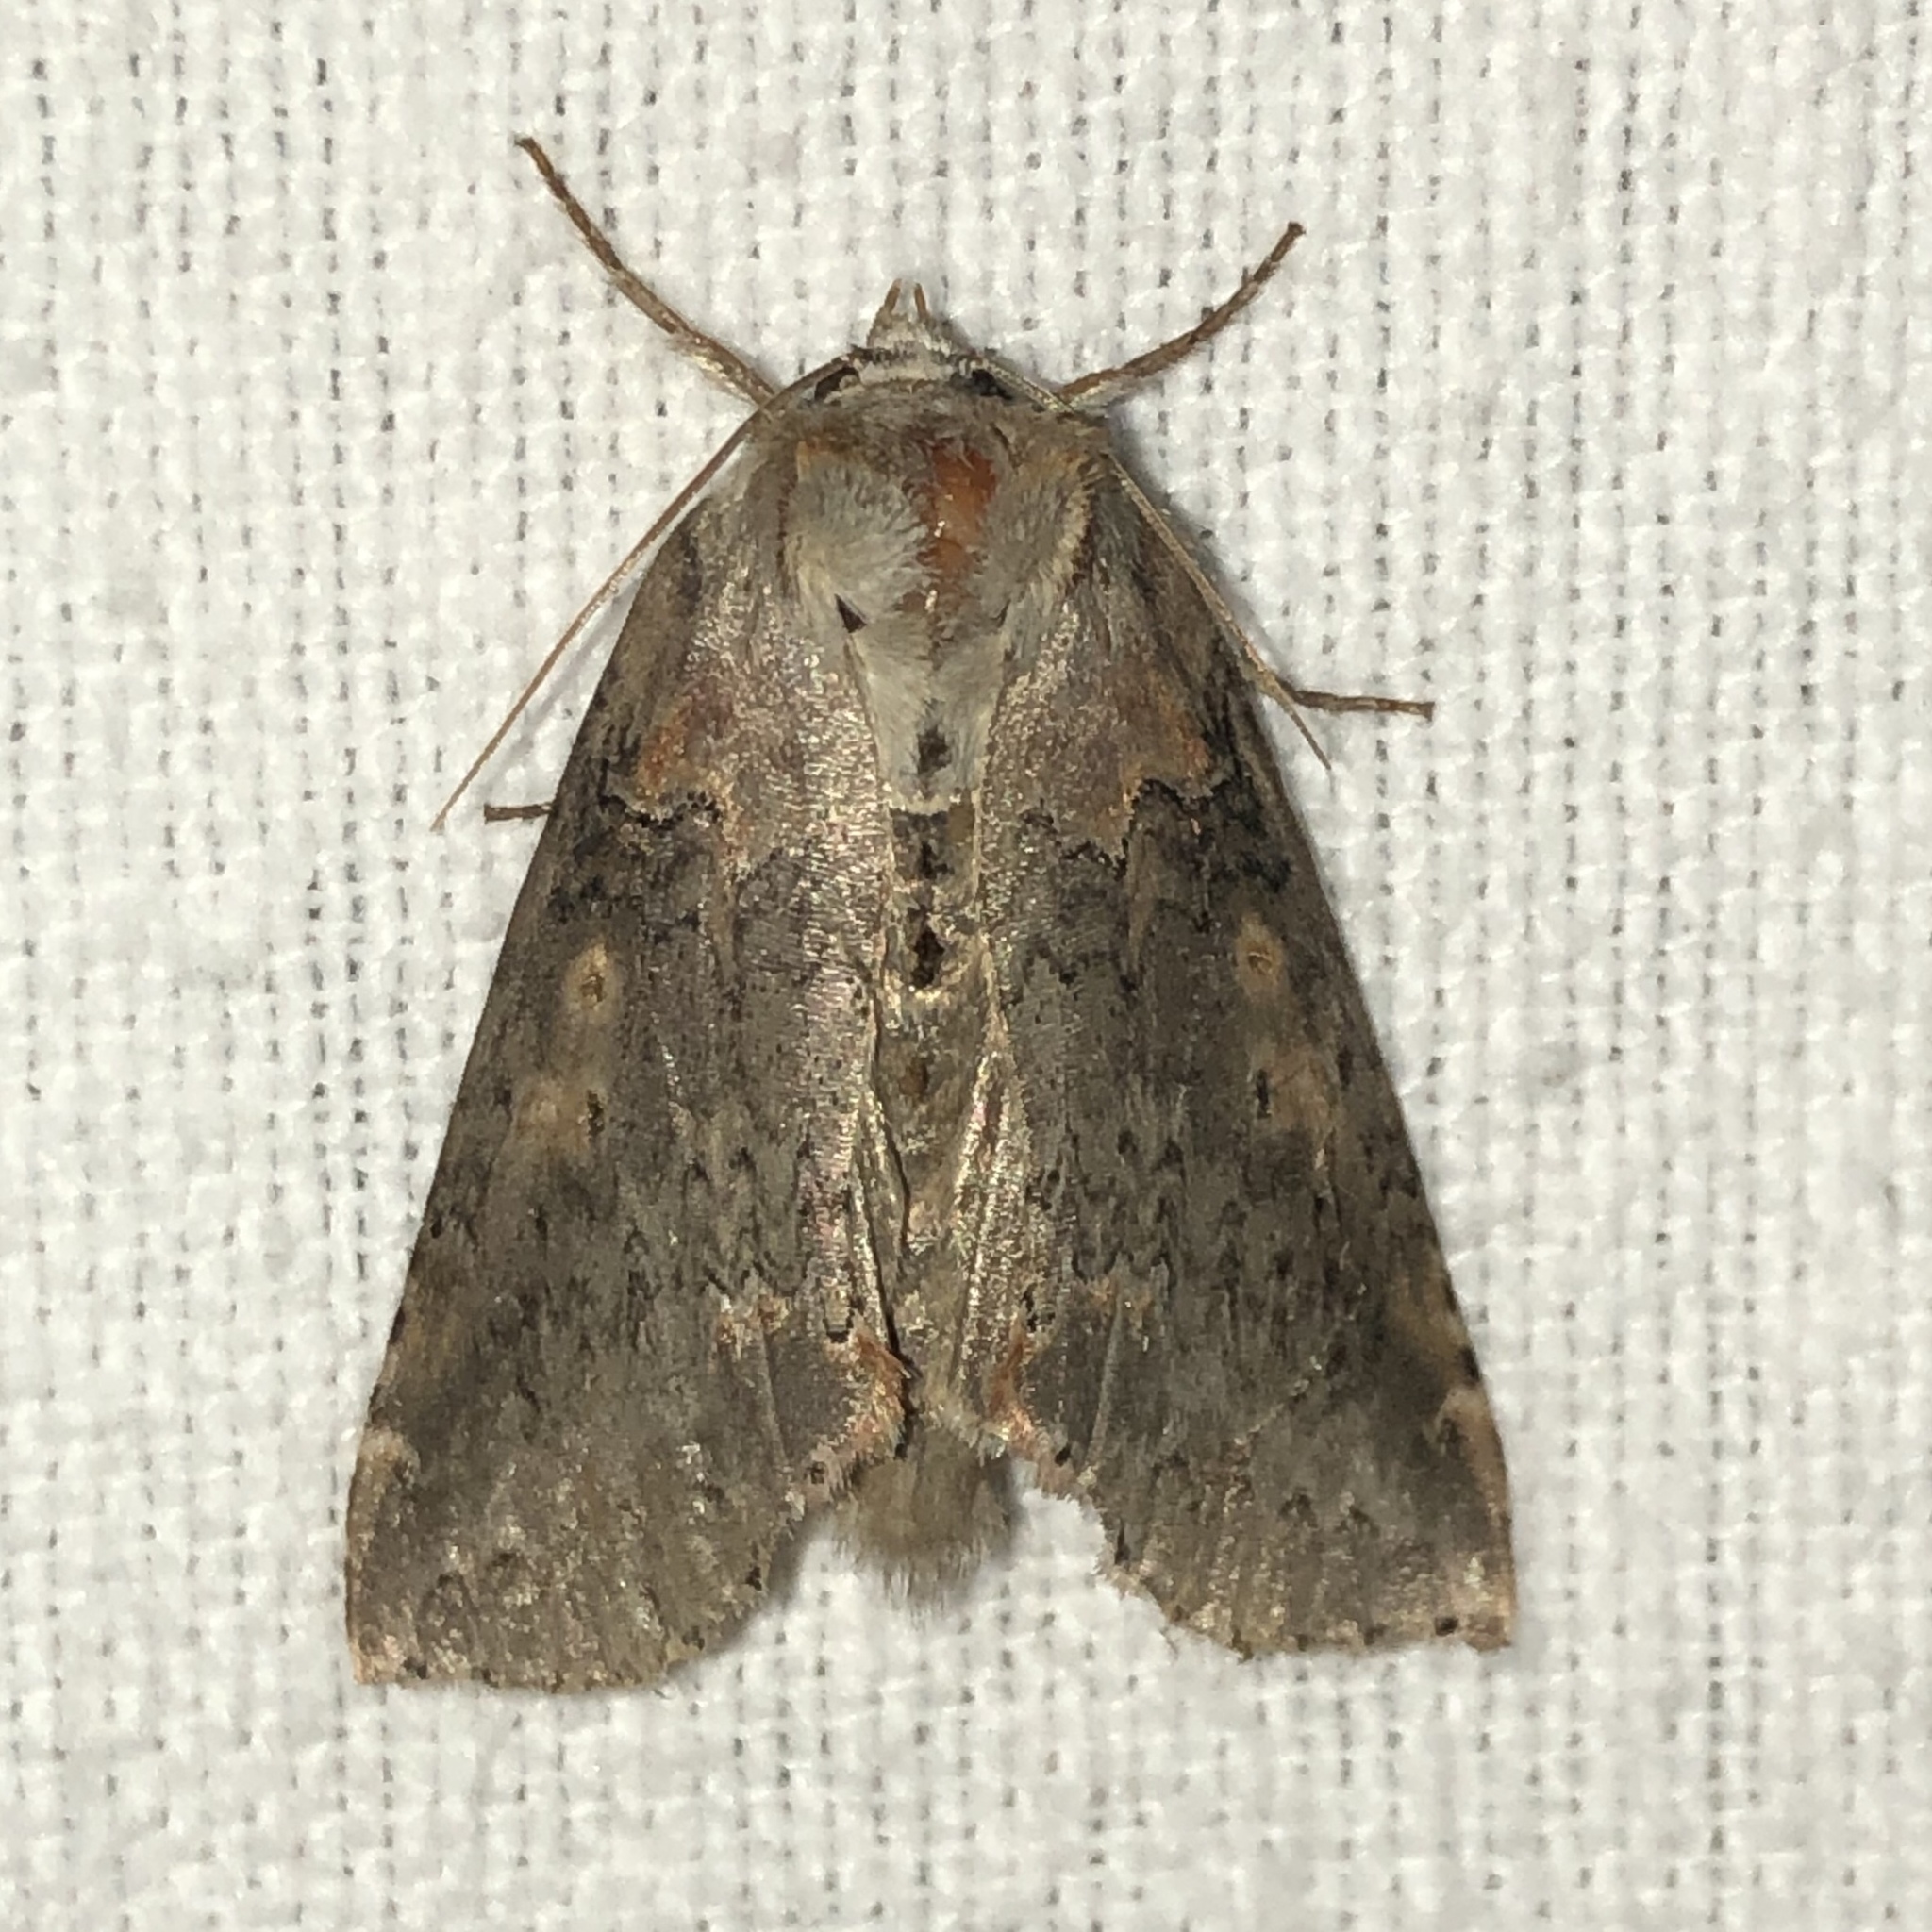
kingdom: Animalia
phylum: Arthropoda
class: Insecta
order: Lepidoptera
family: Drepanidae
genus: Pseudothyatira
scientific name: Pseudothyatira cymatophoroides
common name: Tufted thyatirid moth
